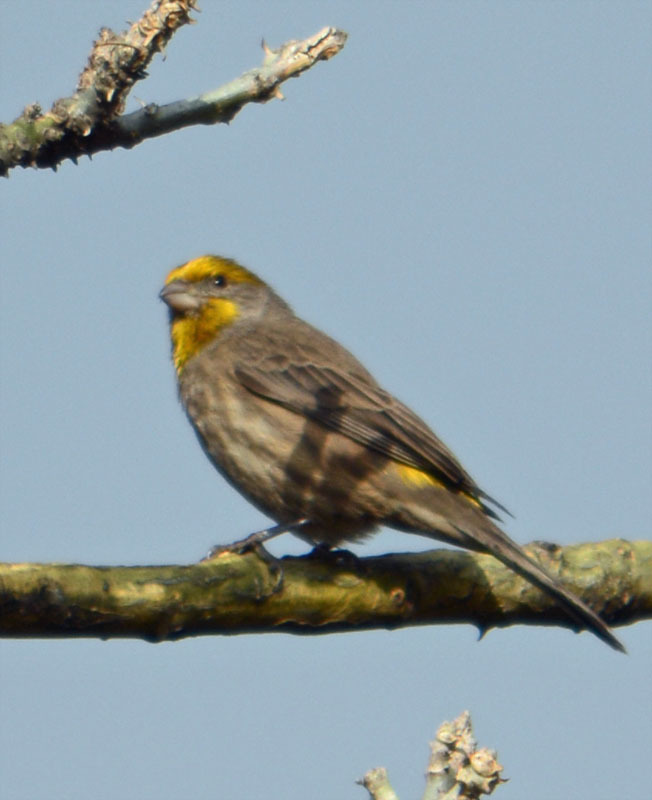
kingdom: Animalia
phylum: Chordata
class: Aves
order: Passeriformes
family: Fringillidae
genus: Haemorhous
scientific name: Haemorhous mexicanus
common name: House finch
